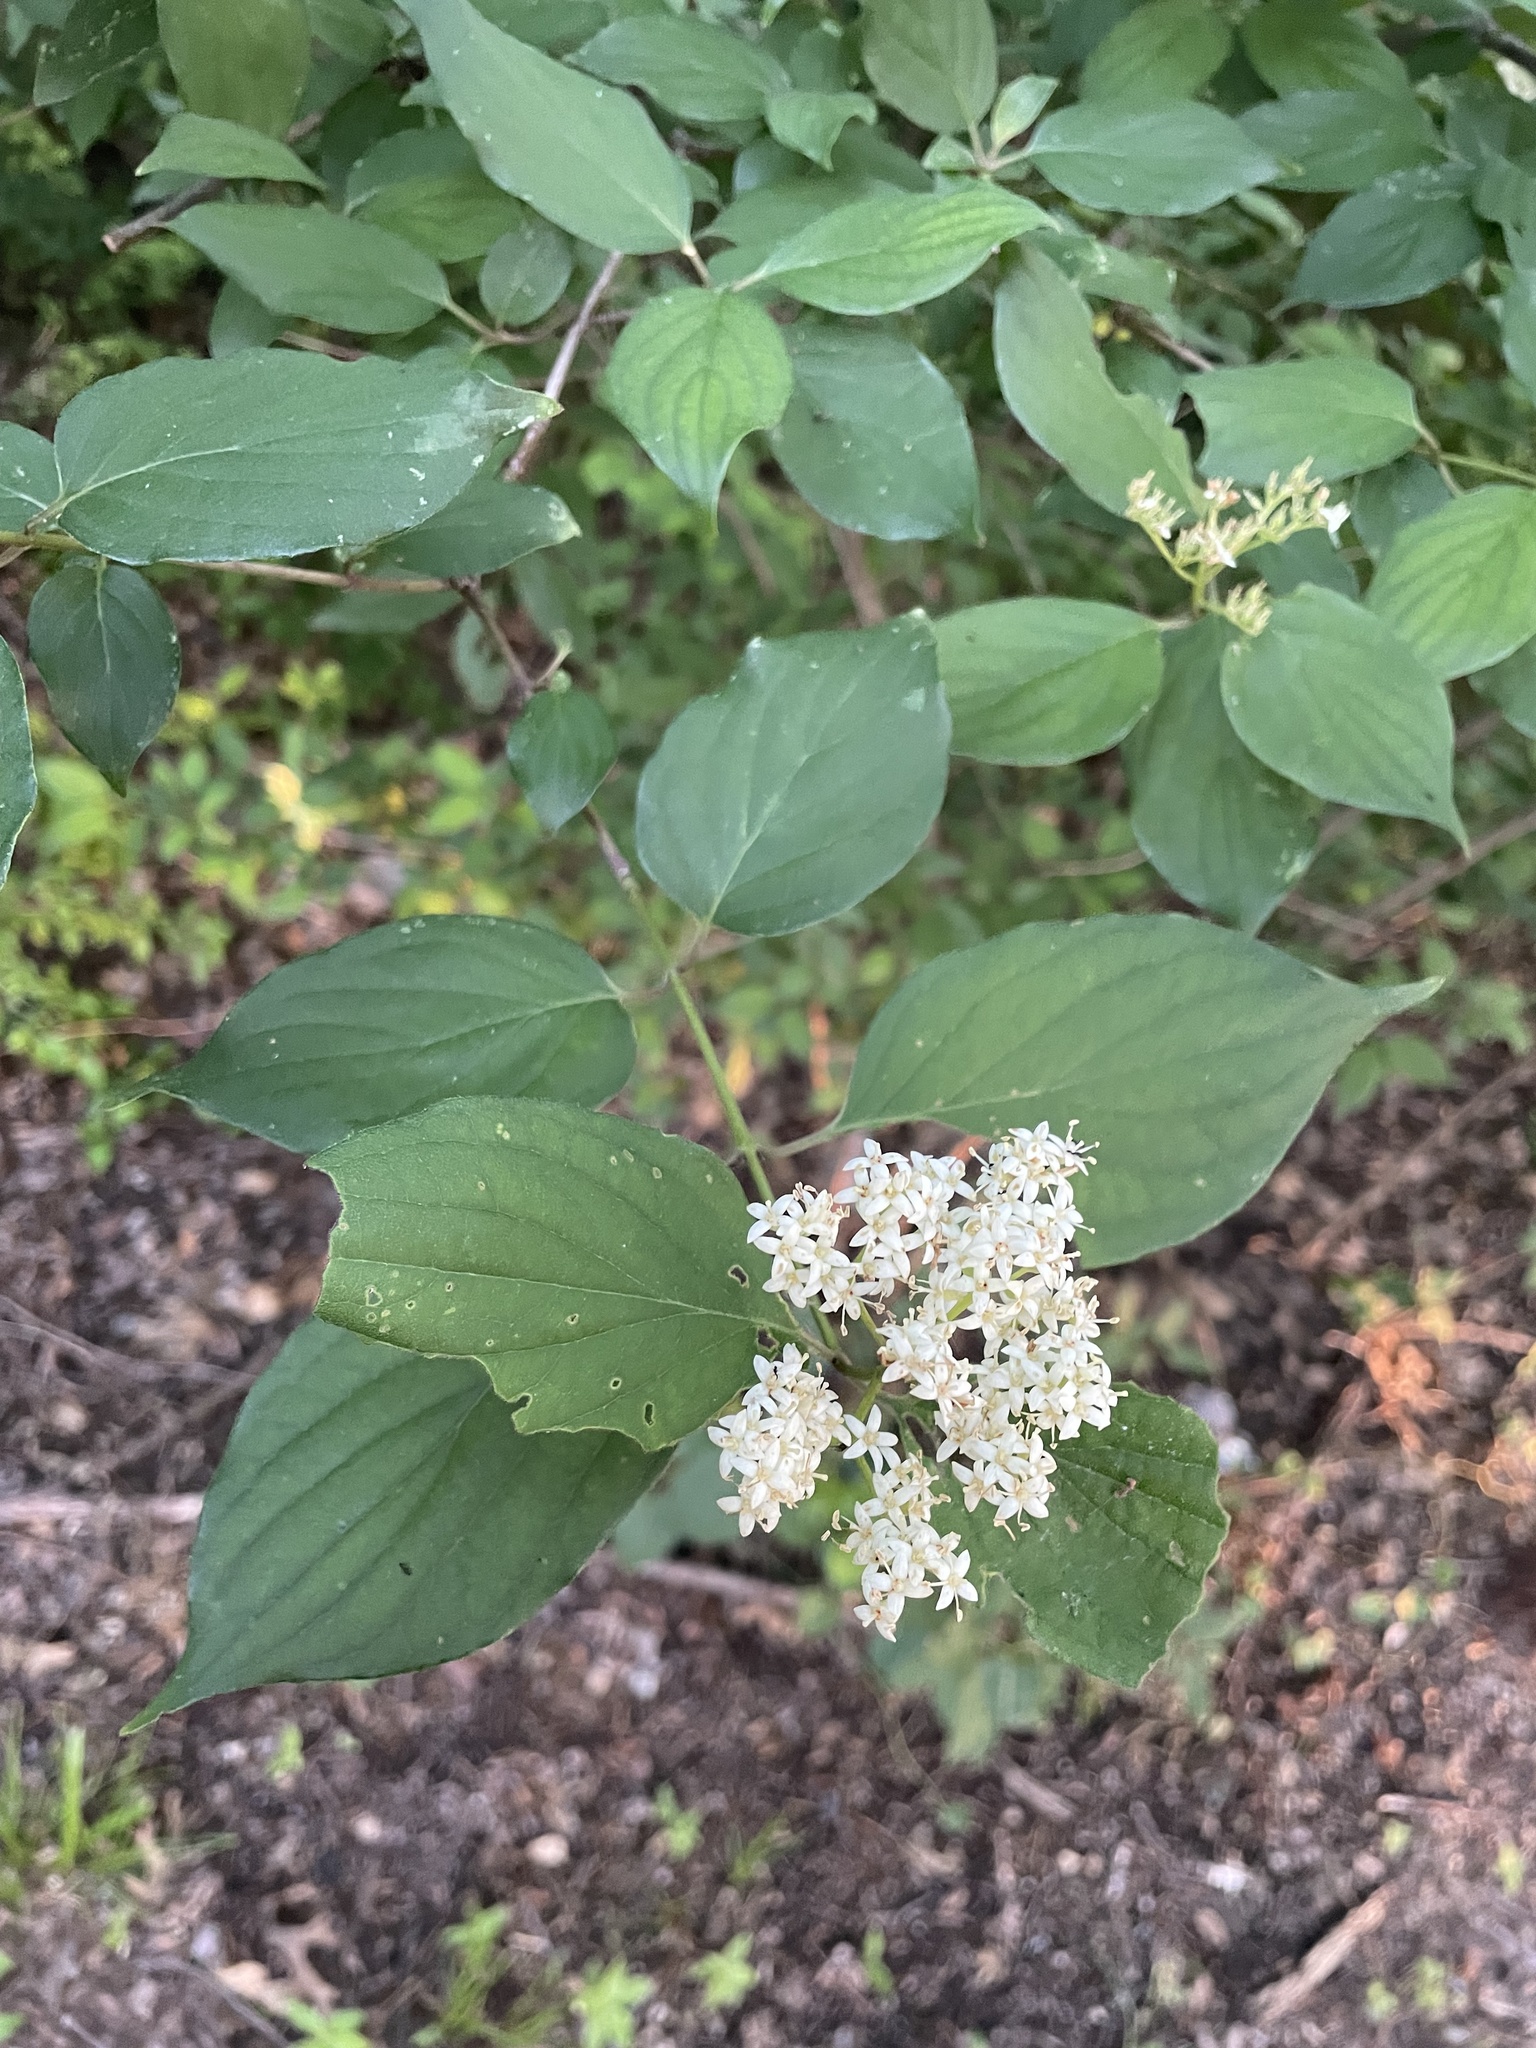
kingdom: Plantae
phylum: Tracheophyta
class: Magnoliopsida
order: Cornales
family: Cornaceae
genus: Cornus
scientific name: Cornus drummondii
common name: Rough-leaf dogwood
